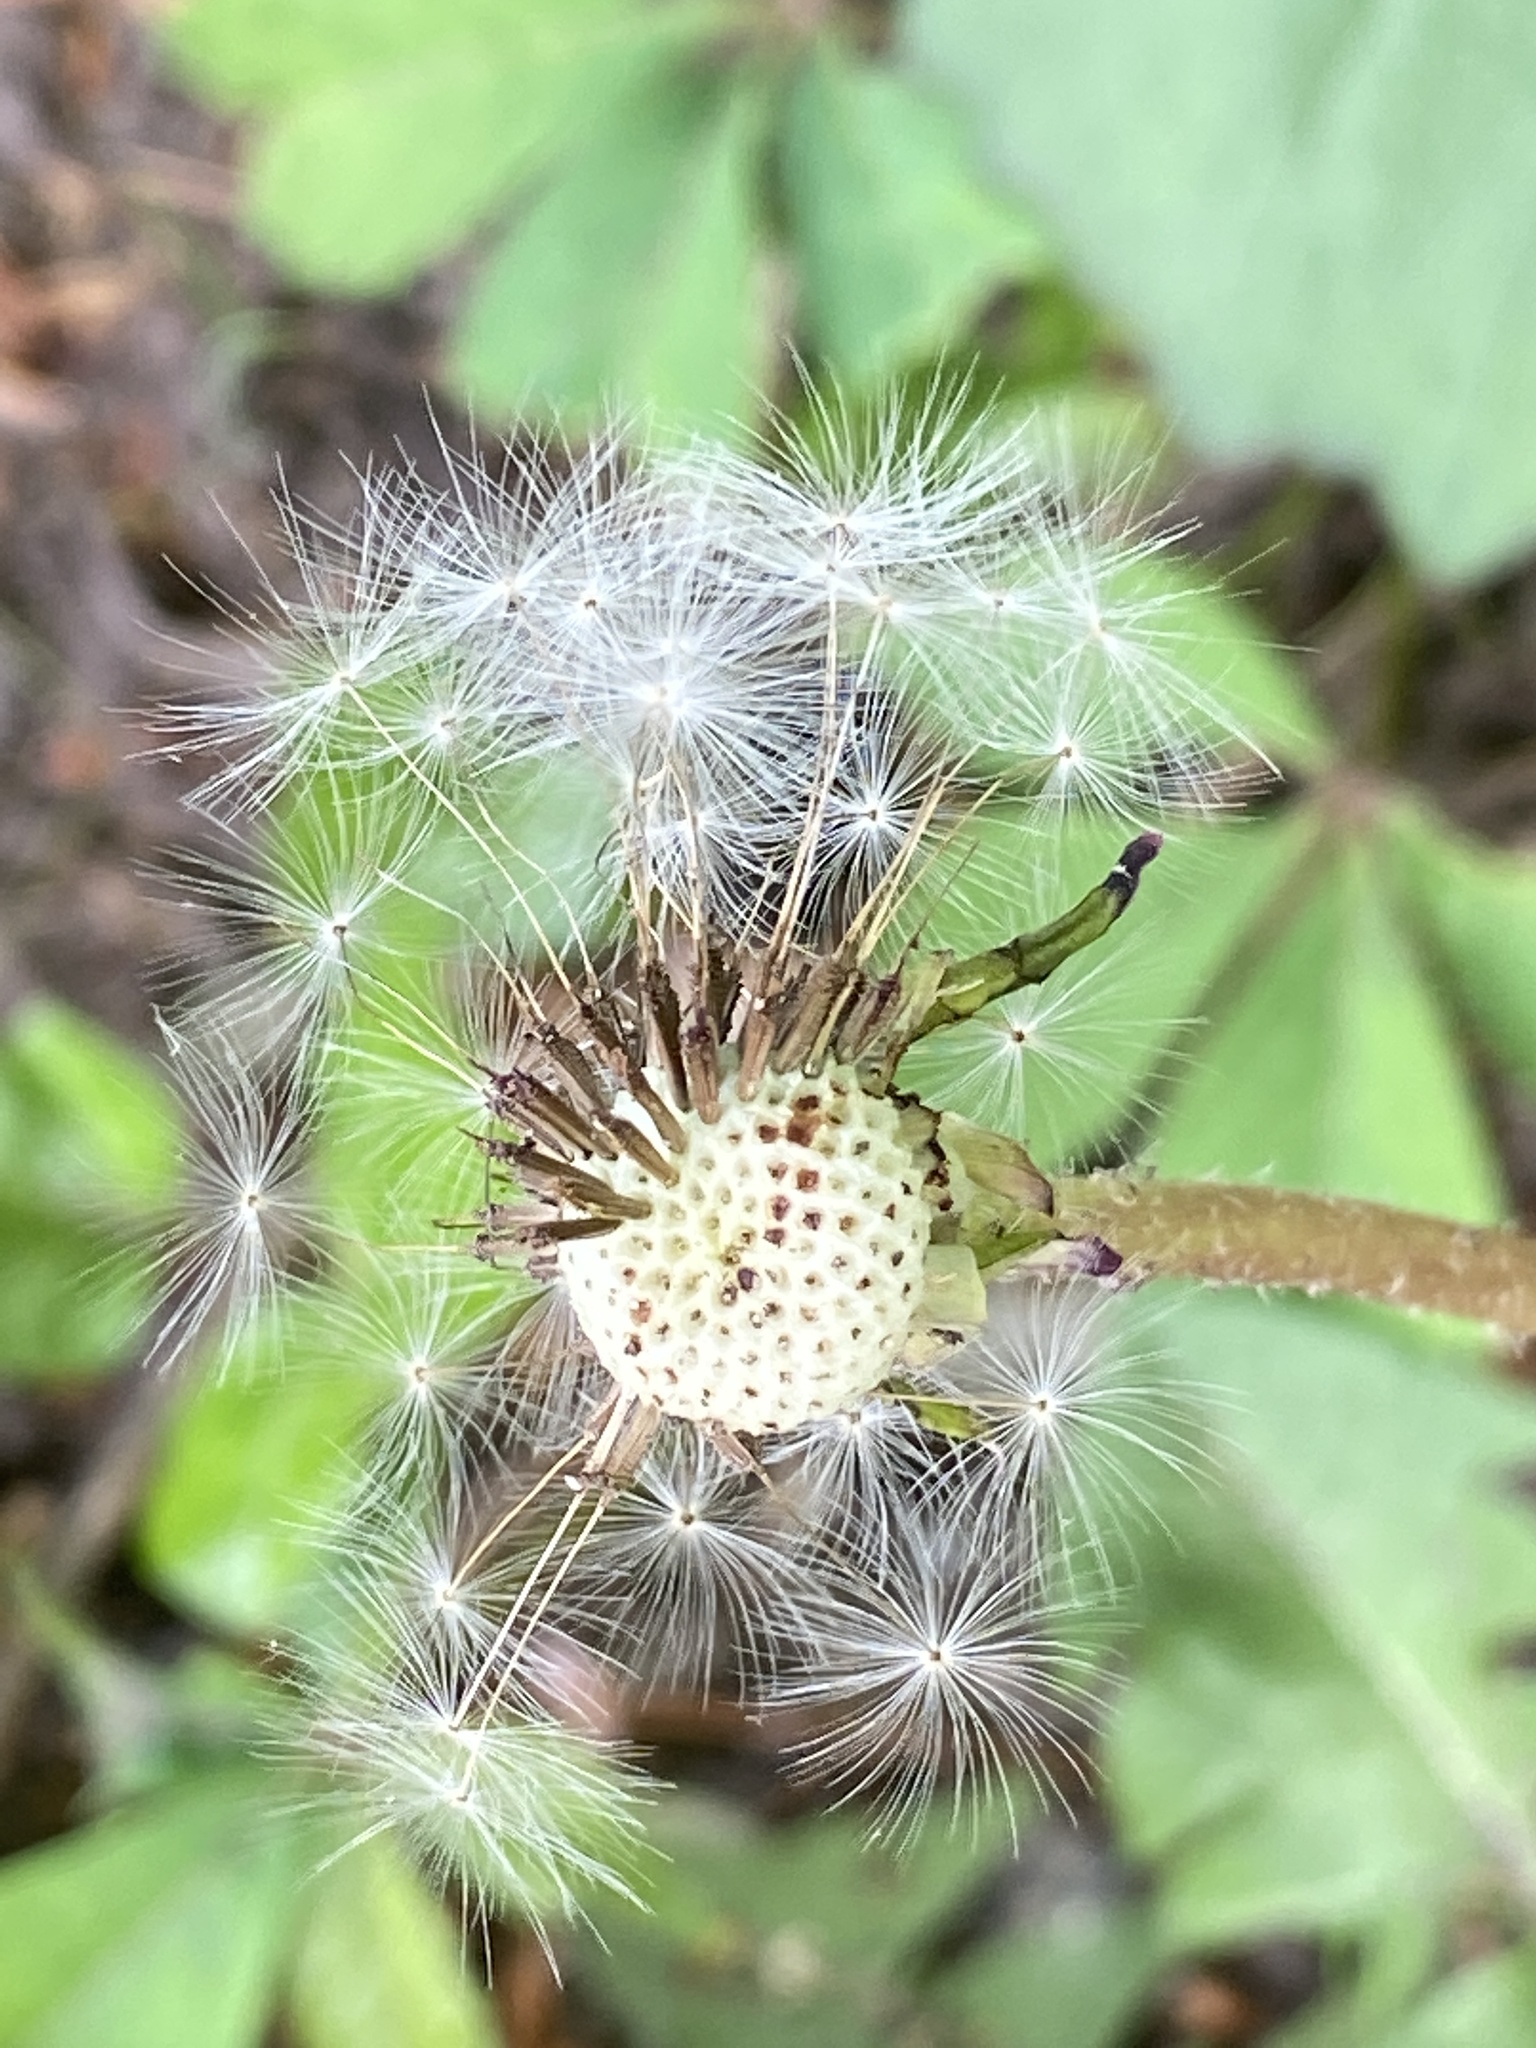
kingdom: Plantae
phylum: Tracheophyta
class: Magnoliopsida
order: Asterales
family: Asteraceae
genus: Taraxacum
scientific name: Taraxacum officinale
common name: Common dandelion
